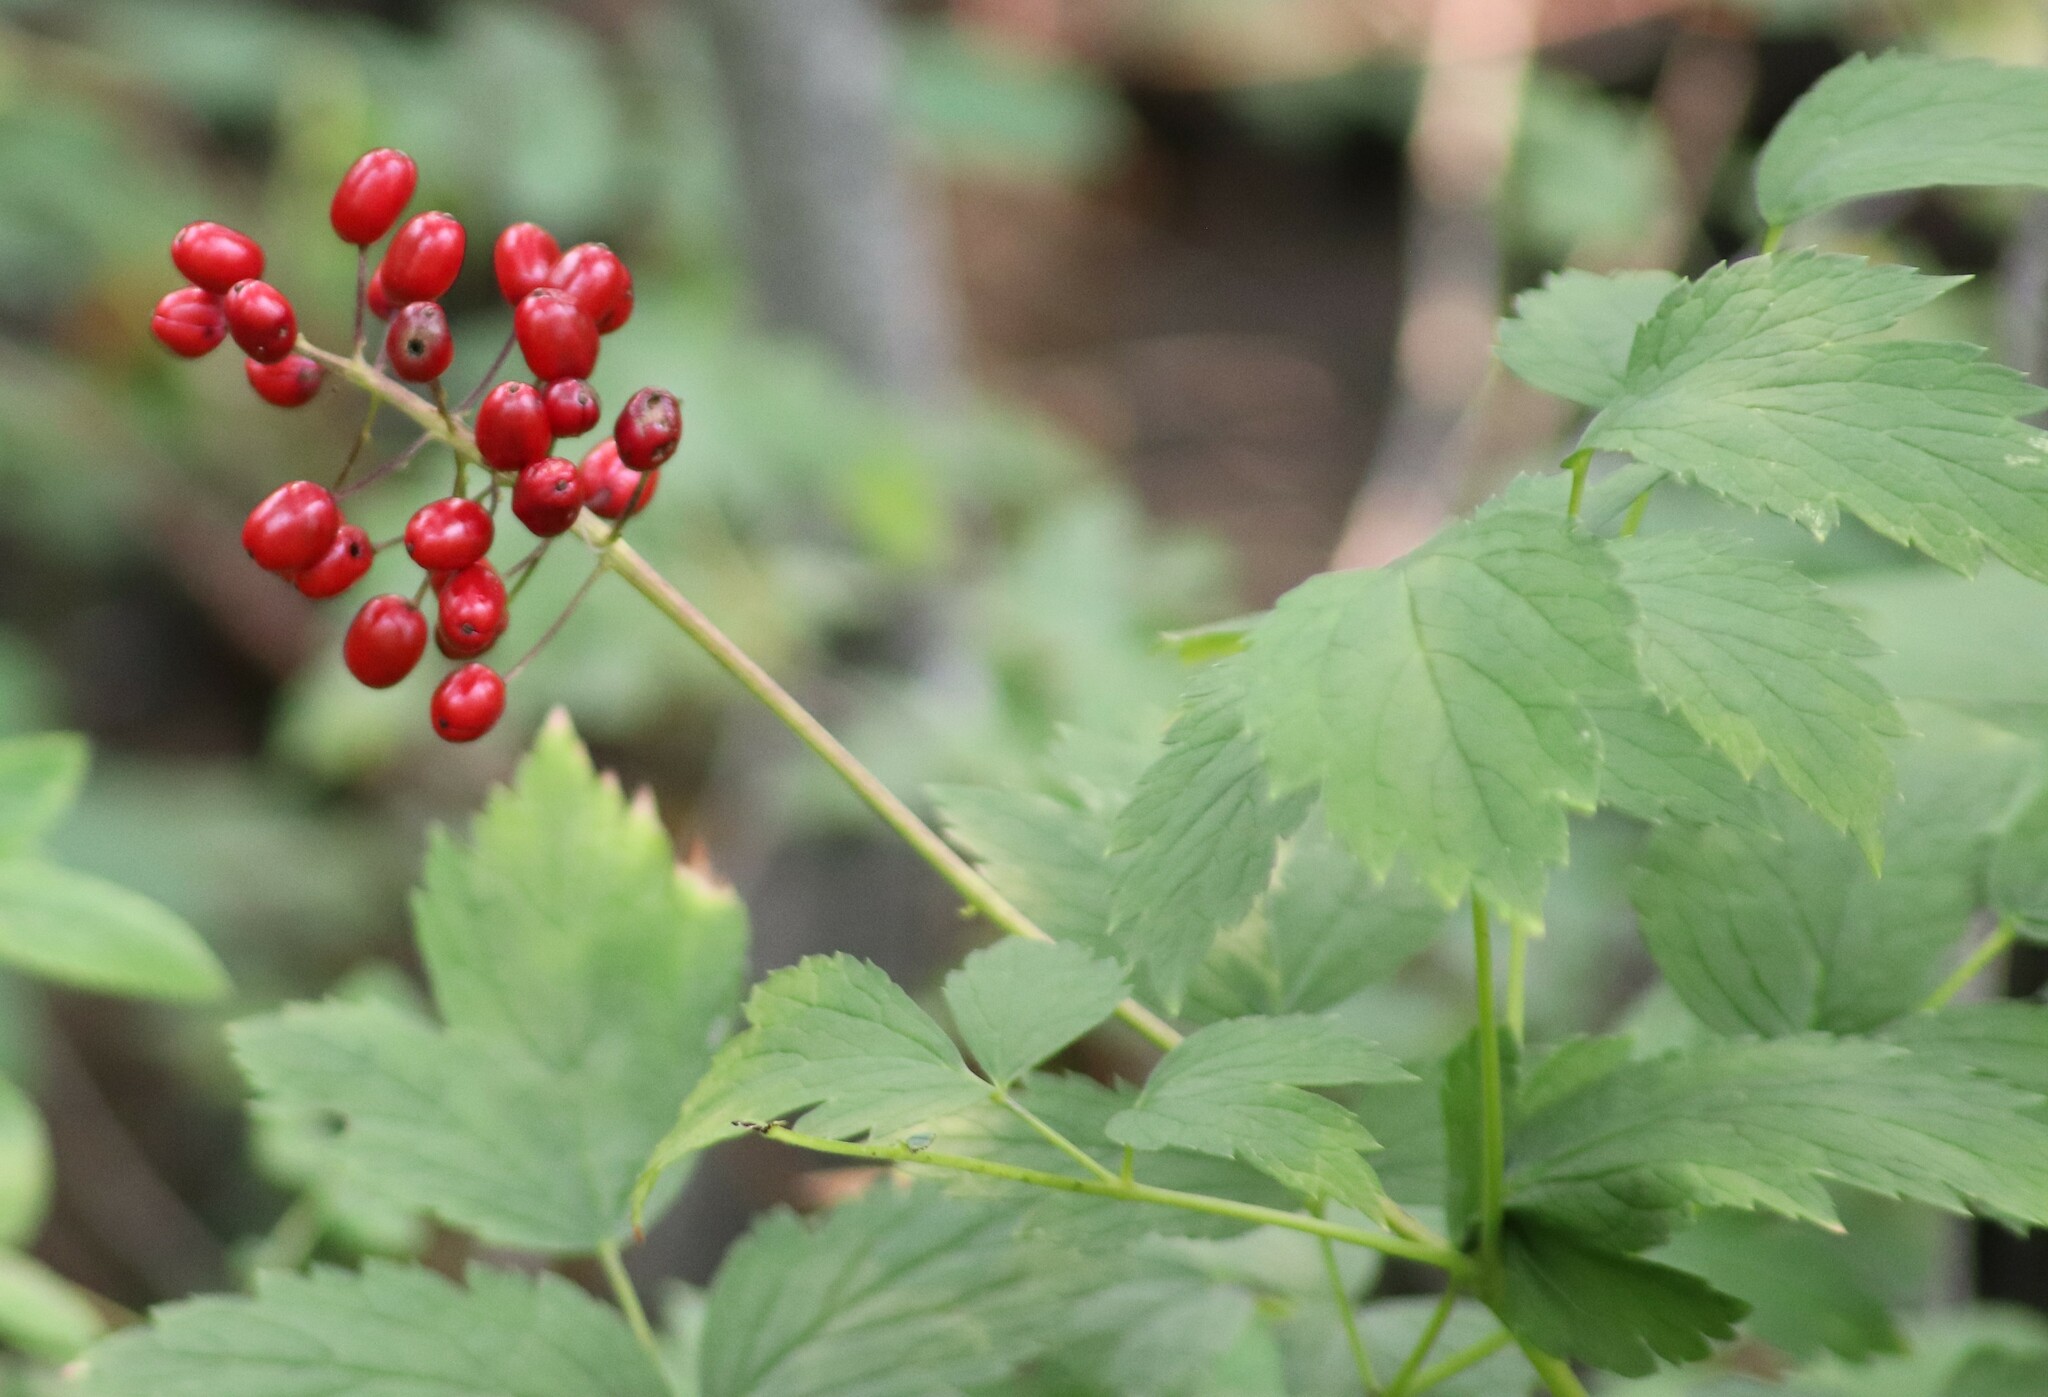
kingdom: Plantae
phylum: Tracheophyta
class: Magnoliopsida
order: Ranunculales
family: Ranunculaceae
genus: Actaea
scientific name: Actaea rubra
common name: Red baneberry
